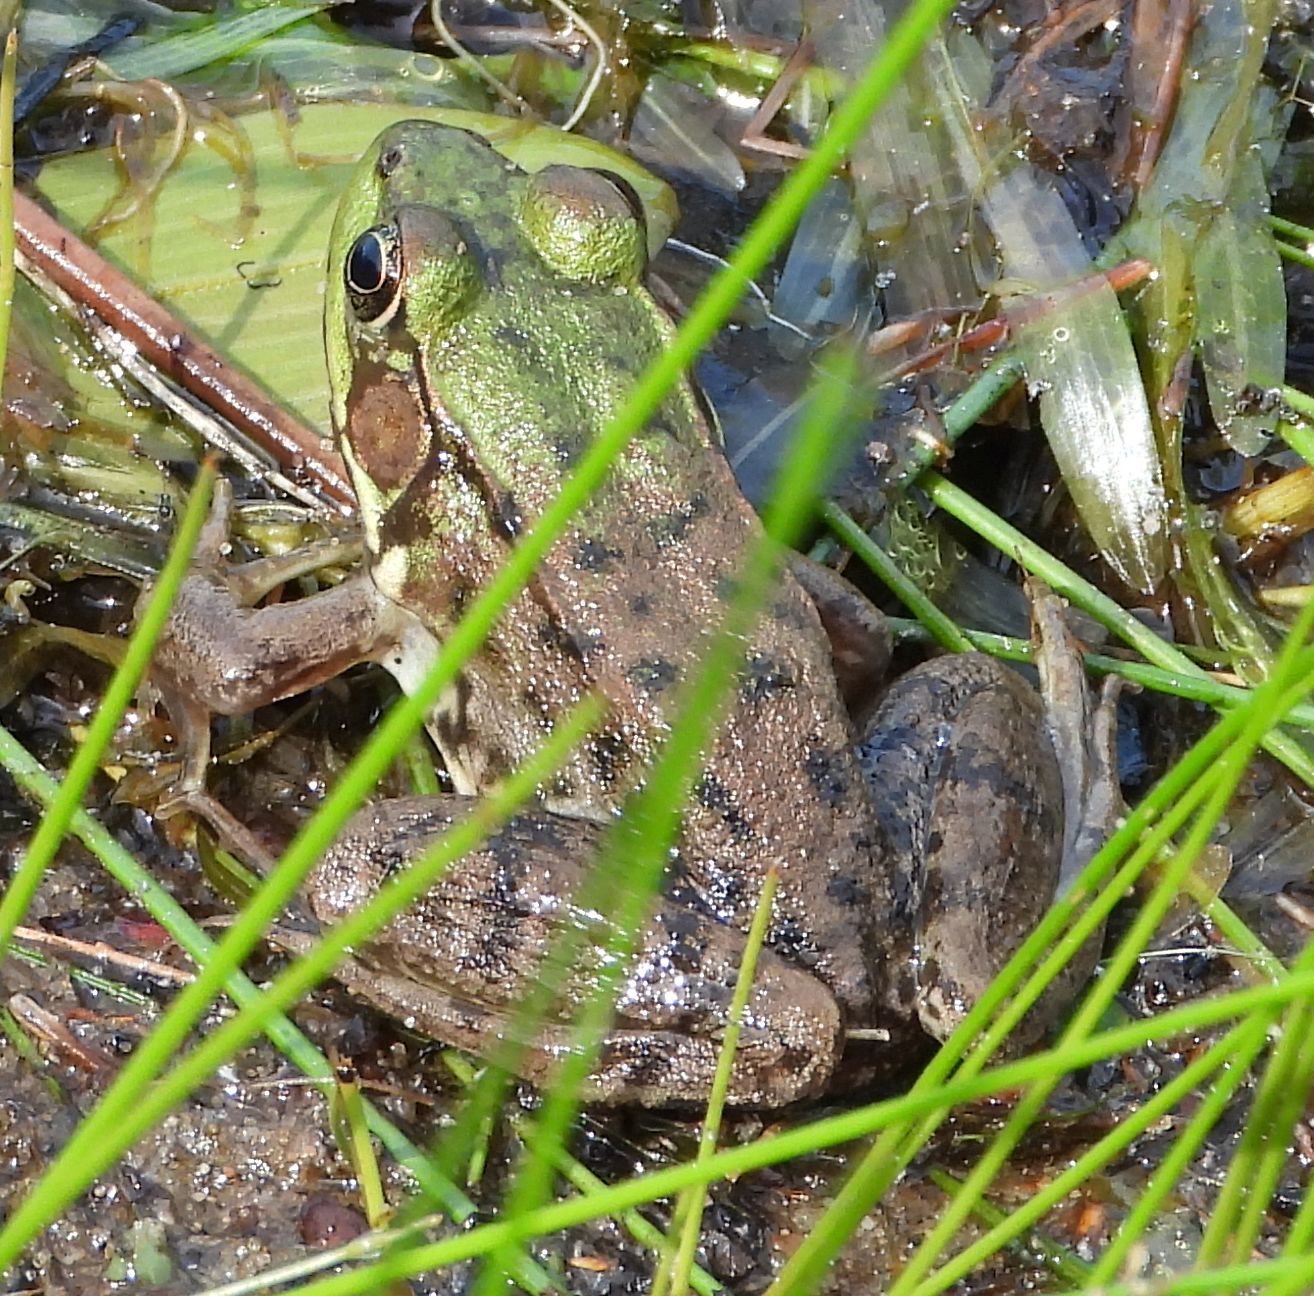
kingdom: Animalia
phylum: Chordata
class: Amphibia
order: Anura
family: Ranidae
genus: Lithobates
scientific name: Lithobates clamitans
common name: Green frog
